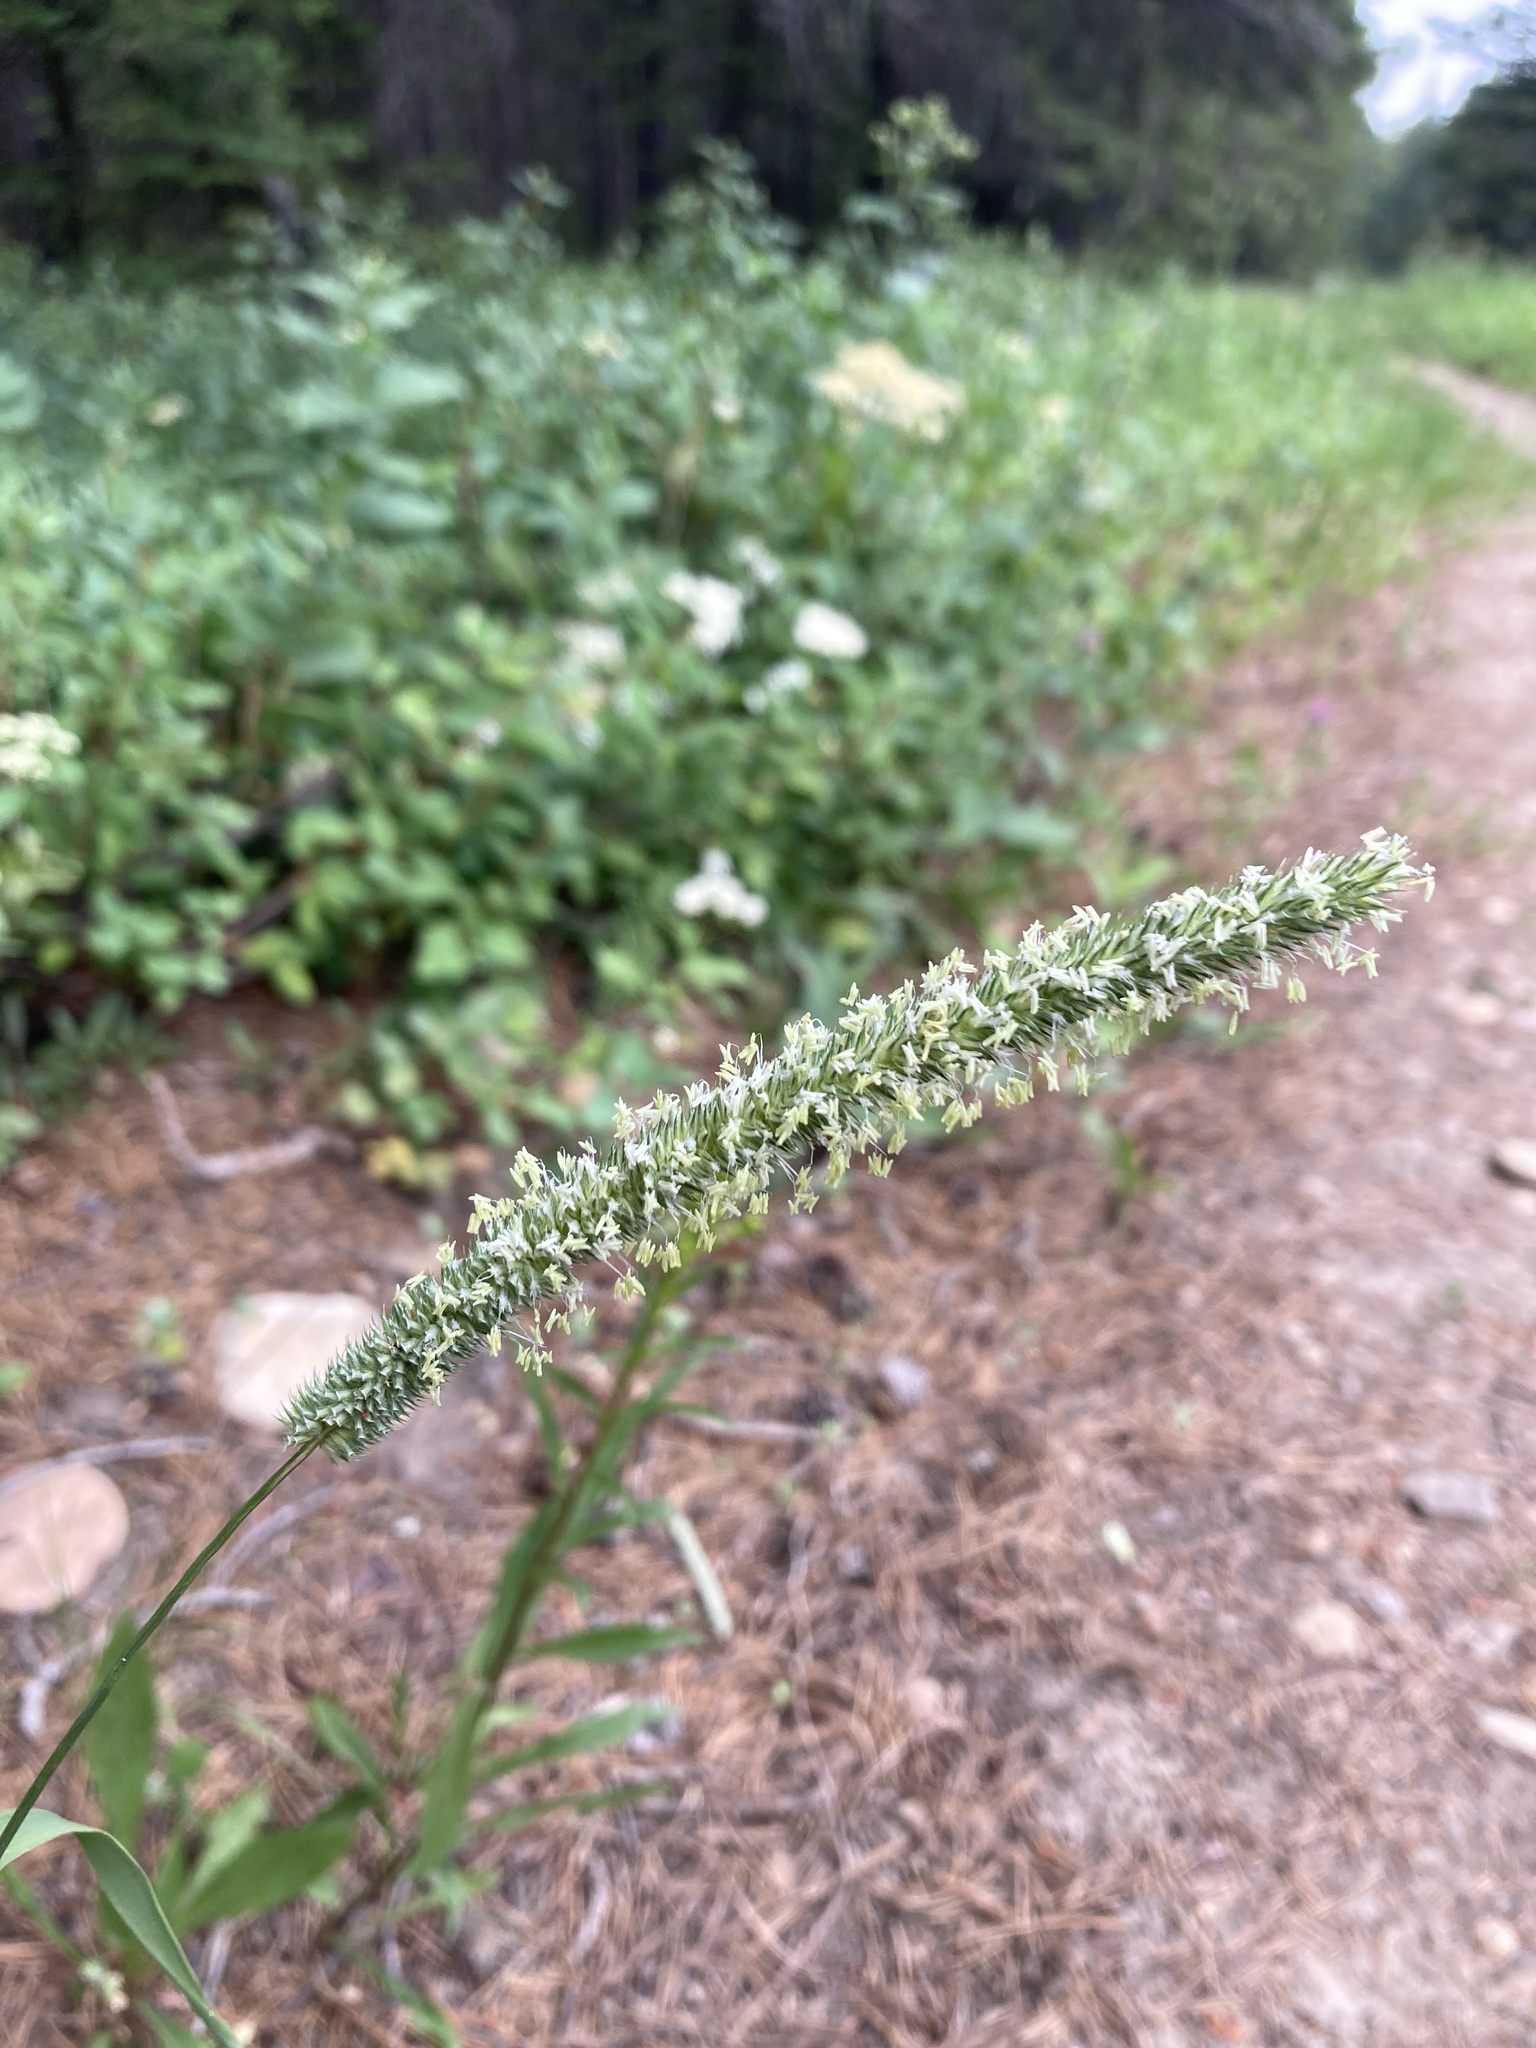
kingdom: Plantae
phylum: Tracheophyta
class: Liliopsida
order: Poales
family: Poaceae
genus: Phleum
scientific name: Phleum pratense
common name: Timothy grass
